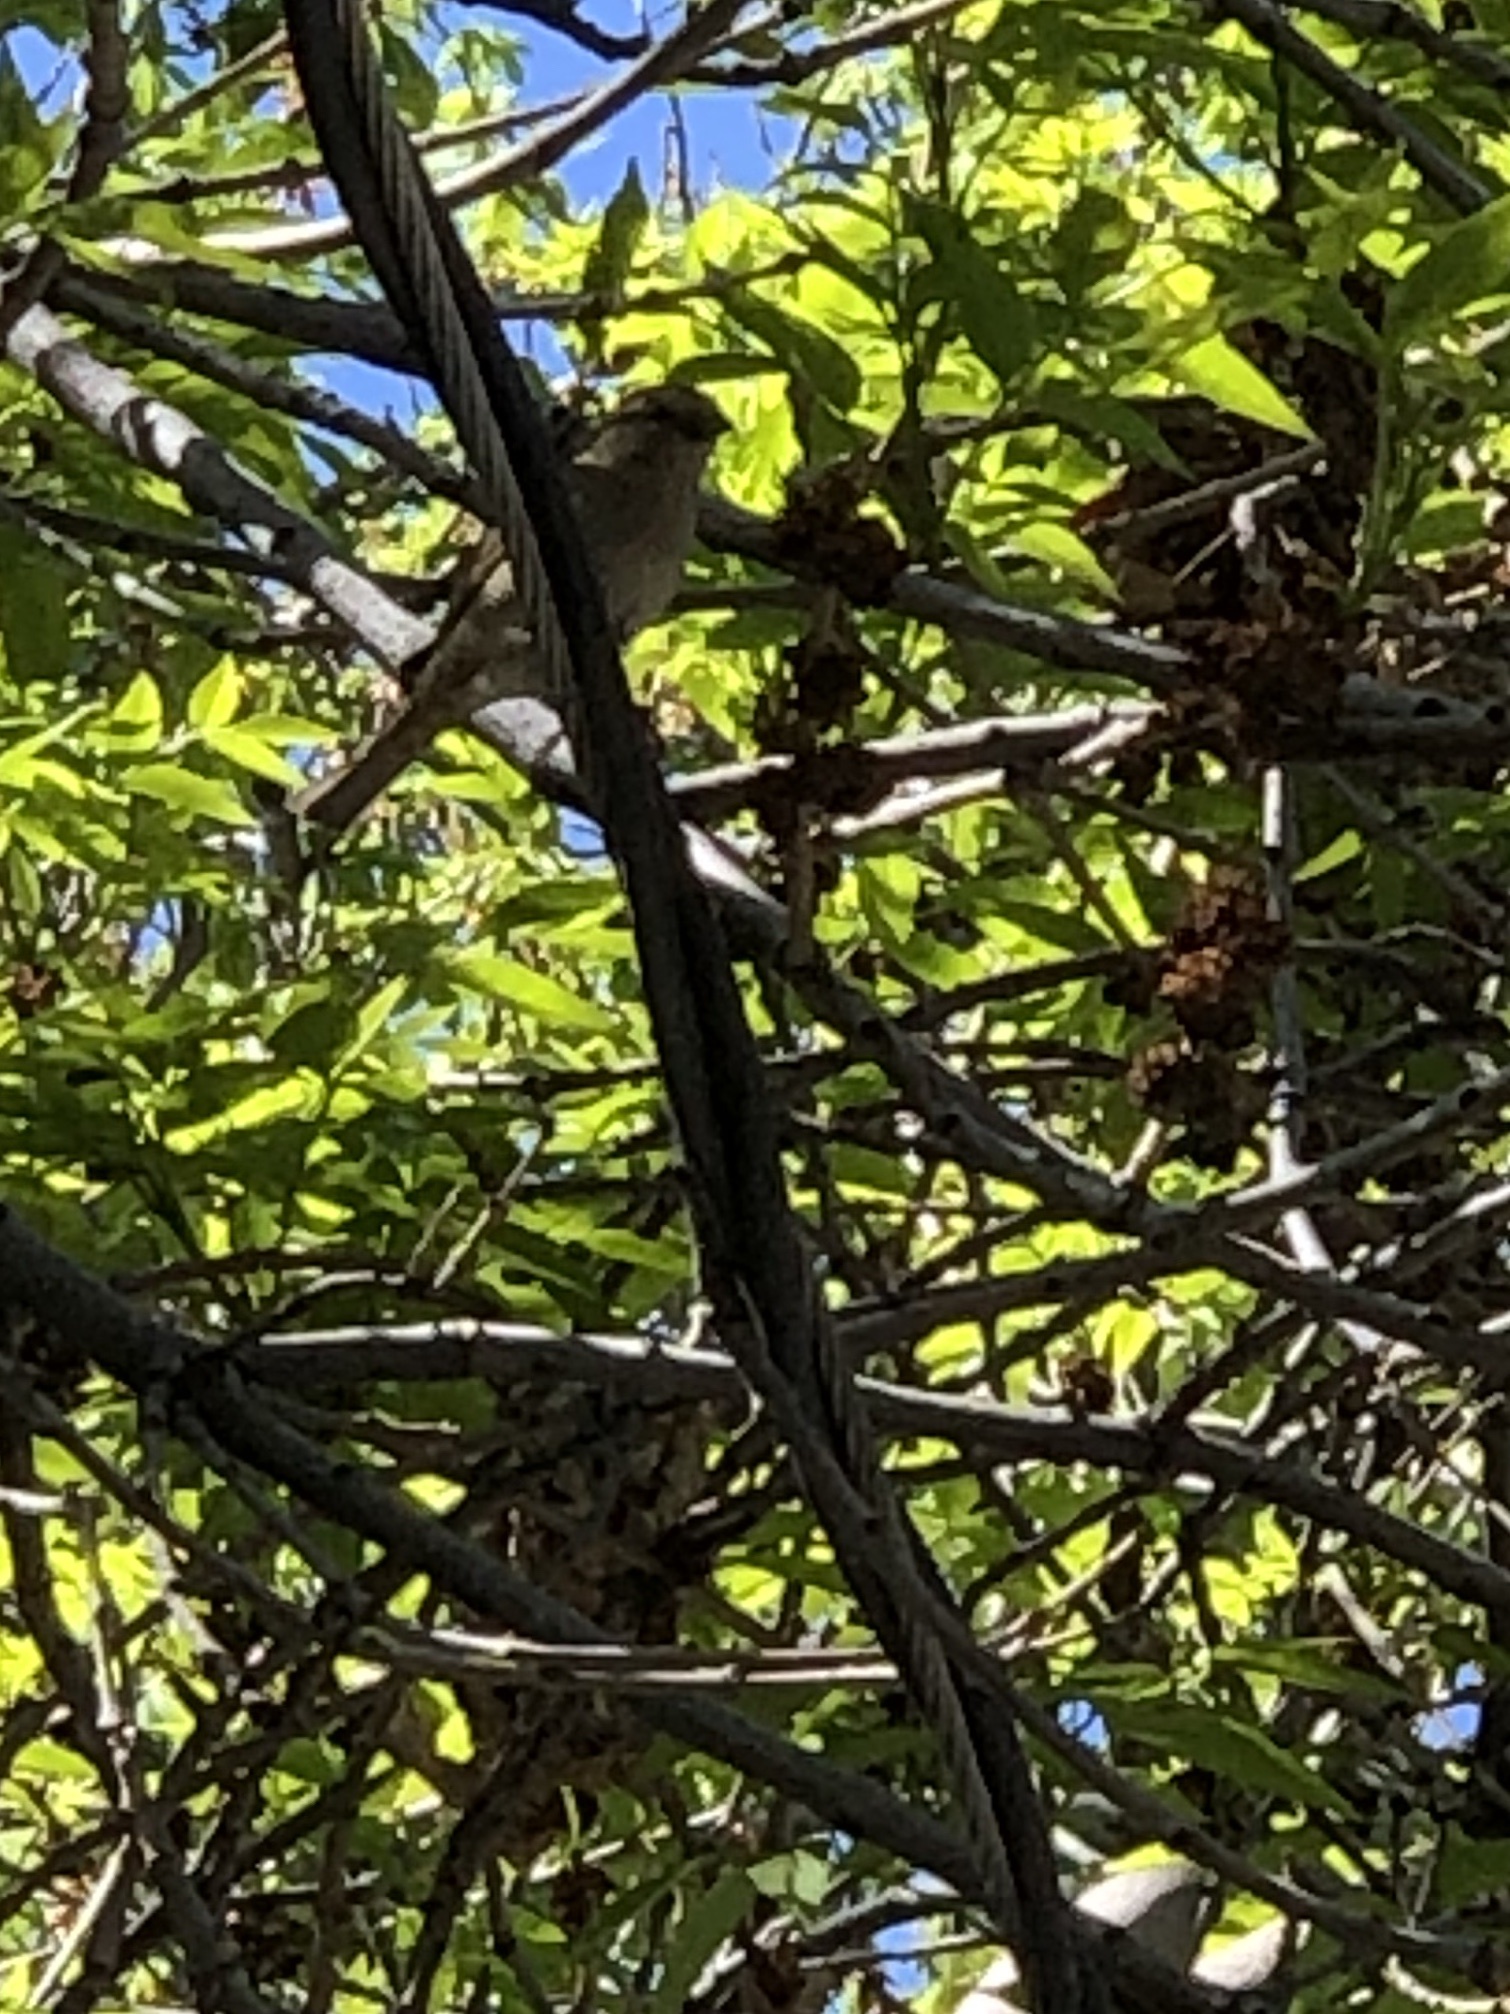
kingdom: Animalia
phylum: Chordata
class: Aves
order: Passeriformes
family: Passeridae
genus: Passer
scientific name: Passer domesticus
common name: House sparrow
